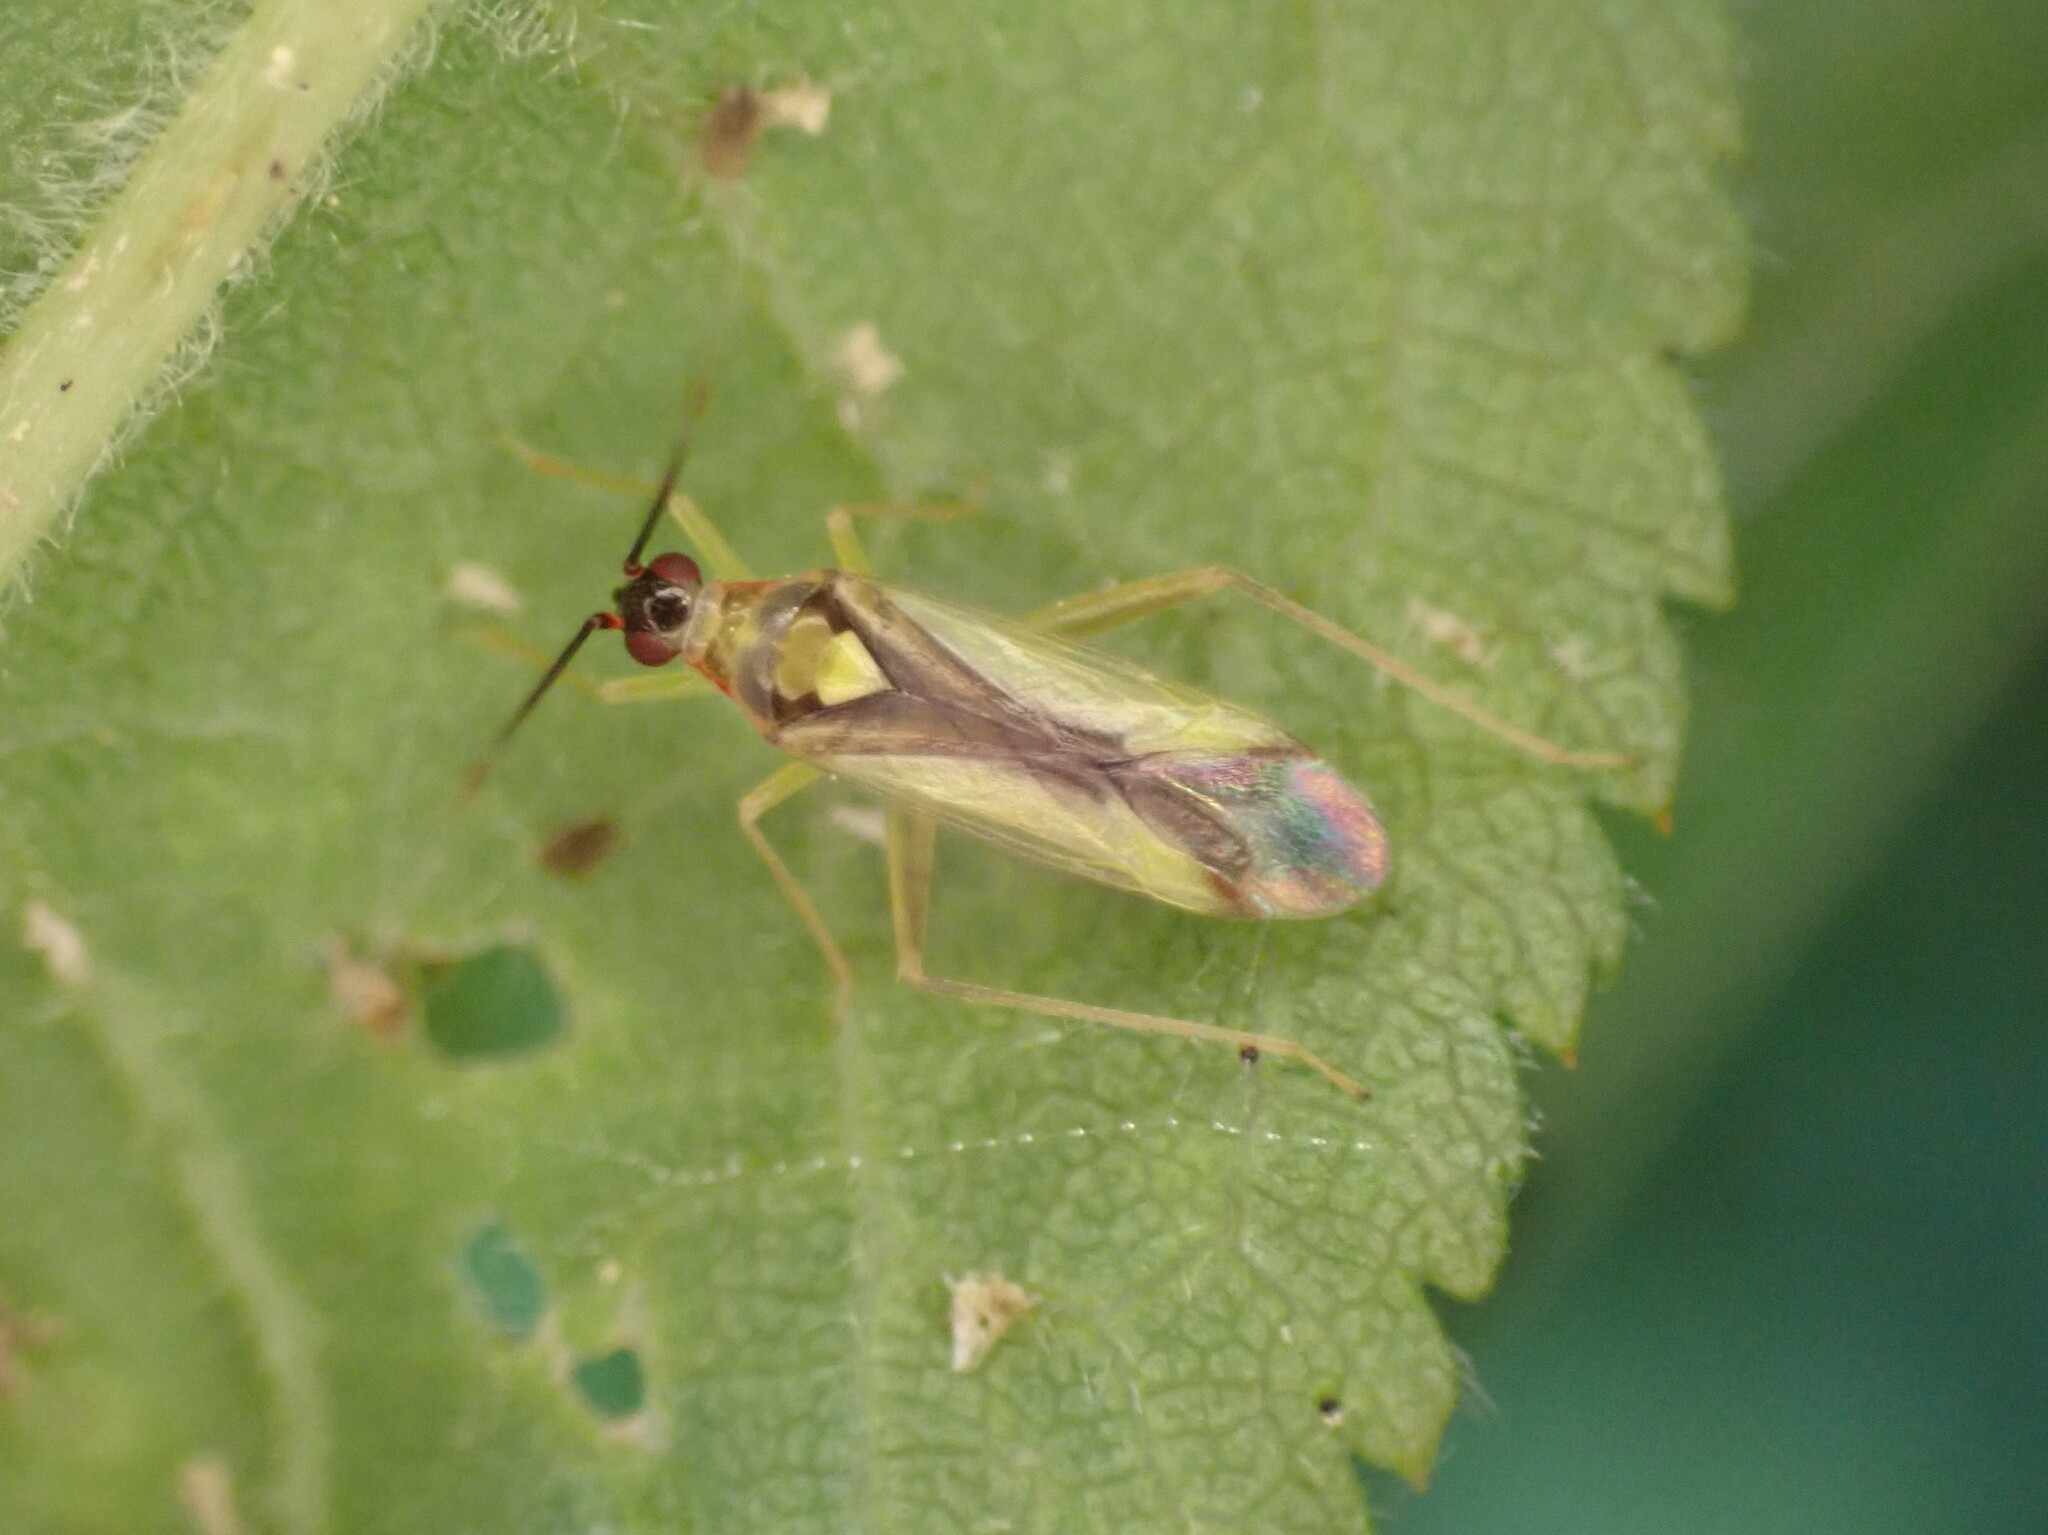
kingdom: Animalia
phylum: Arthropoda
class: Insecta
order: Hemiptera
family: Miridae
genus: Campyloneura
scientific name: Campyloneura virgula
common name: Predatory bug
